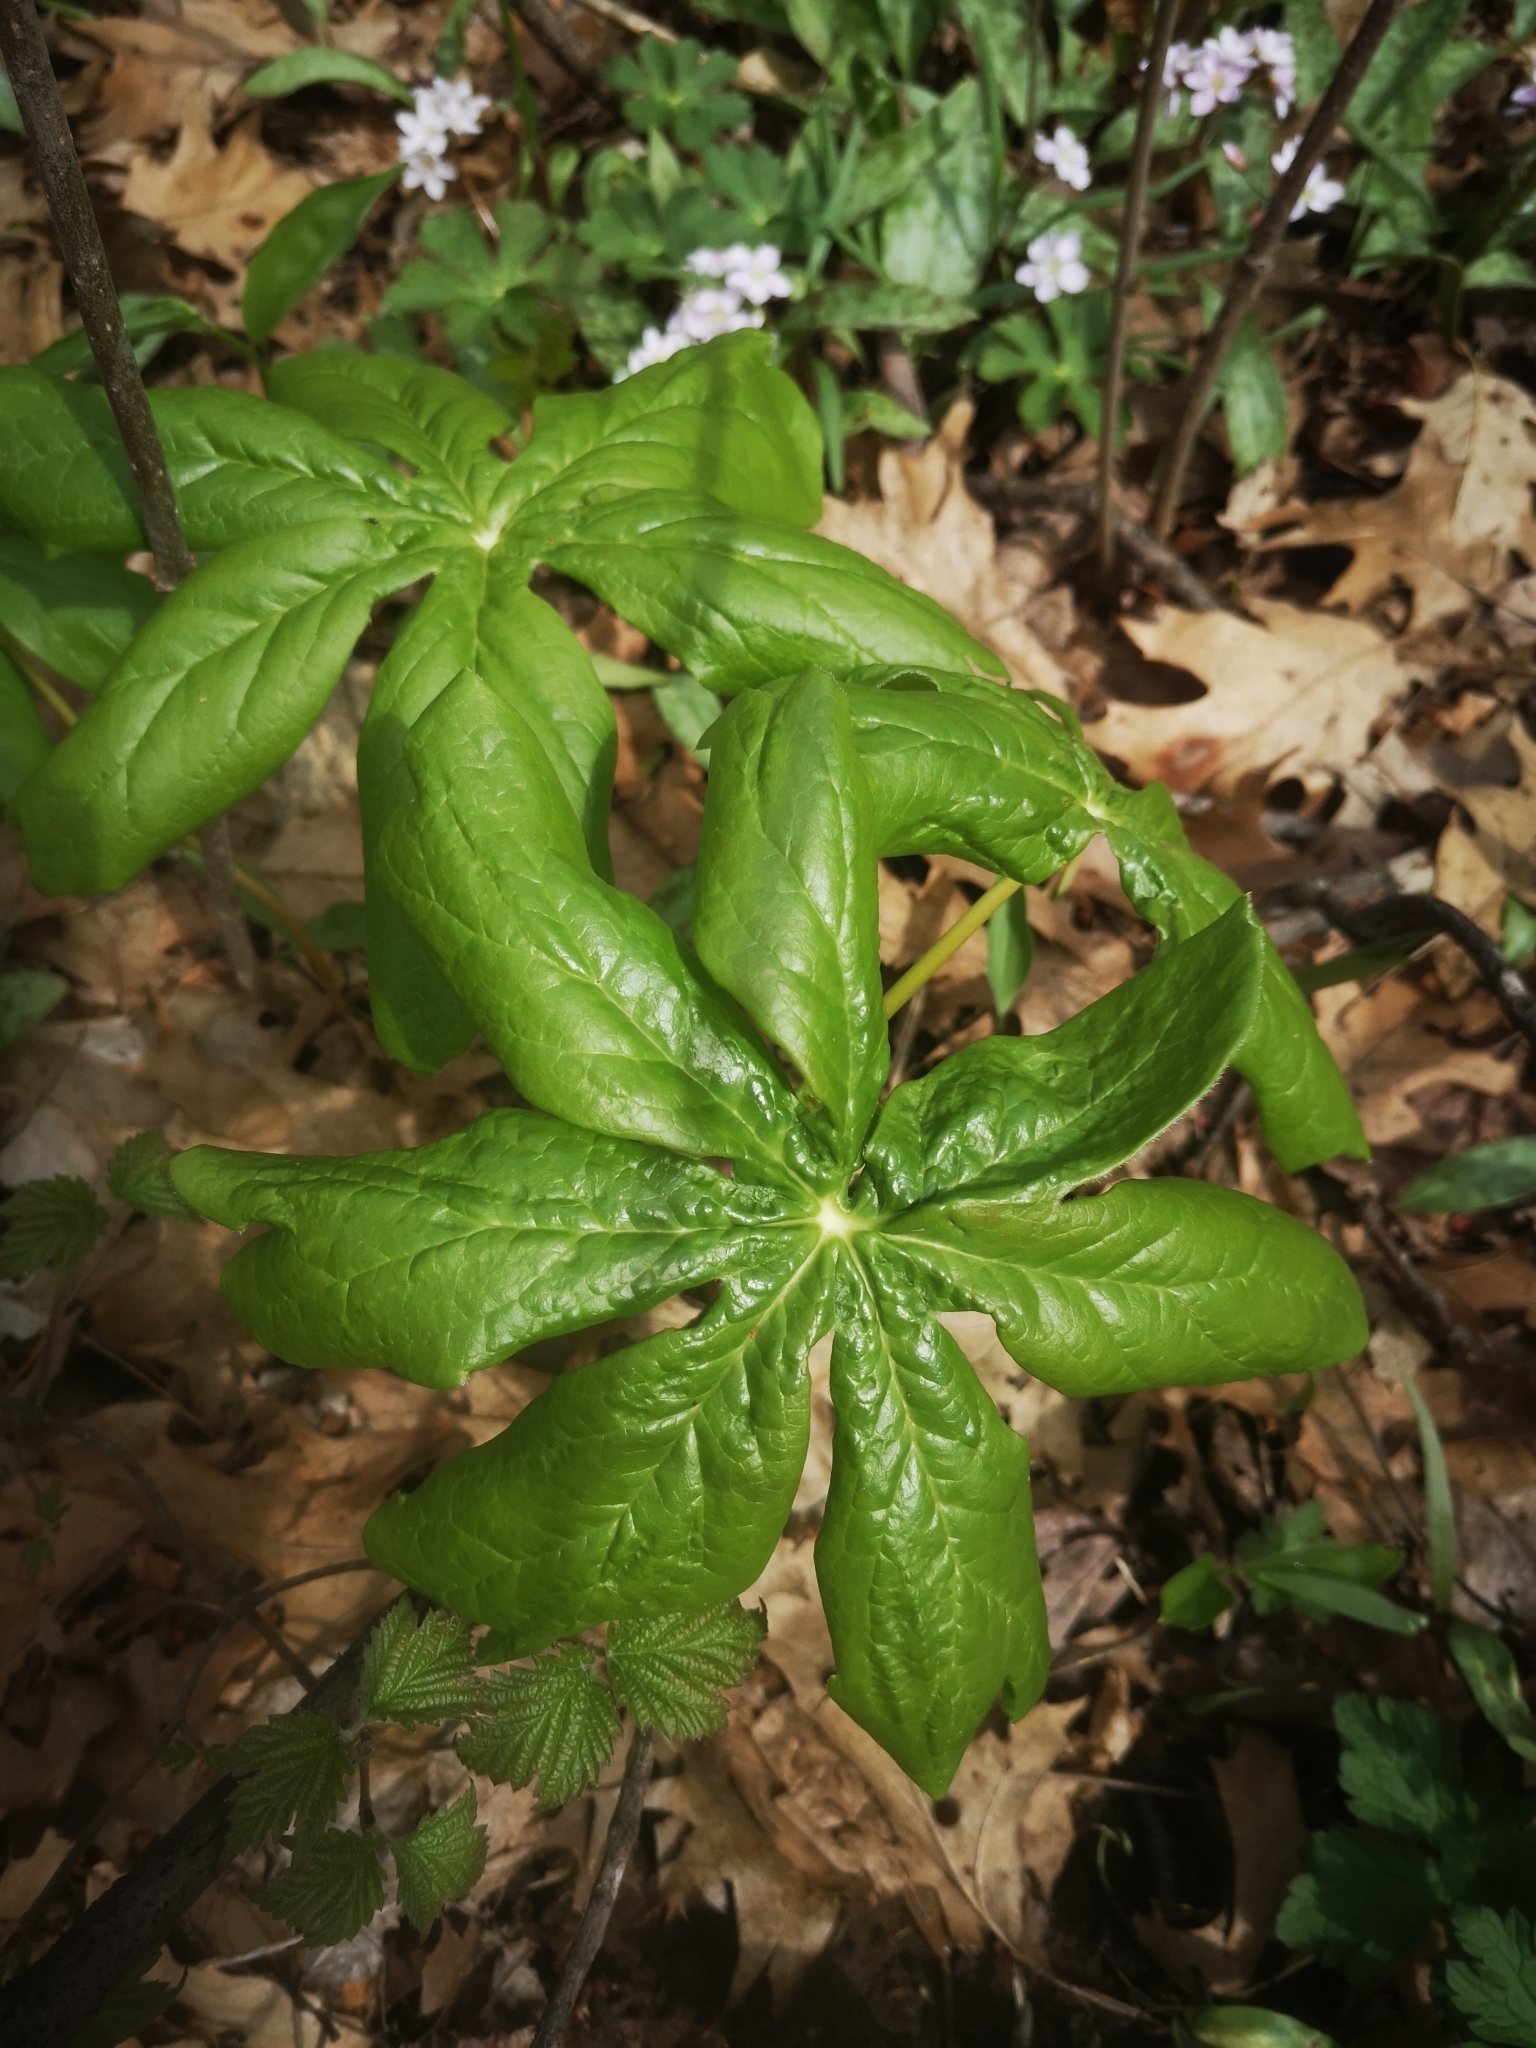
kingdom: Plantae
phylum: Tracheophyta
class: Magnoliopsida
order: Ranunculales
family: Berberidaceae
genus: Podophyllum
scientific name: Podophyllum peltatum
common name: Wild mandrake
